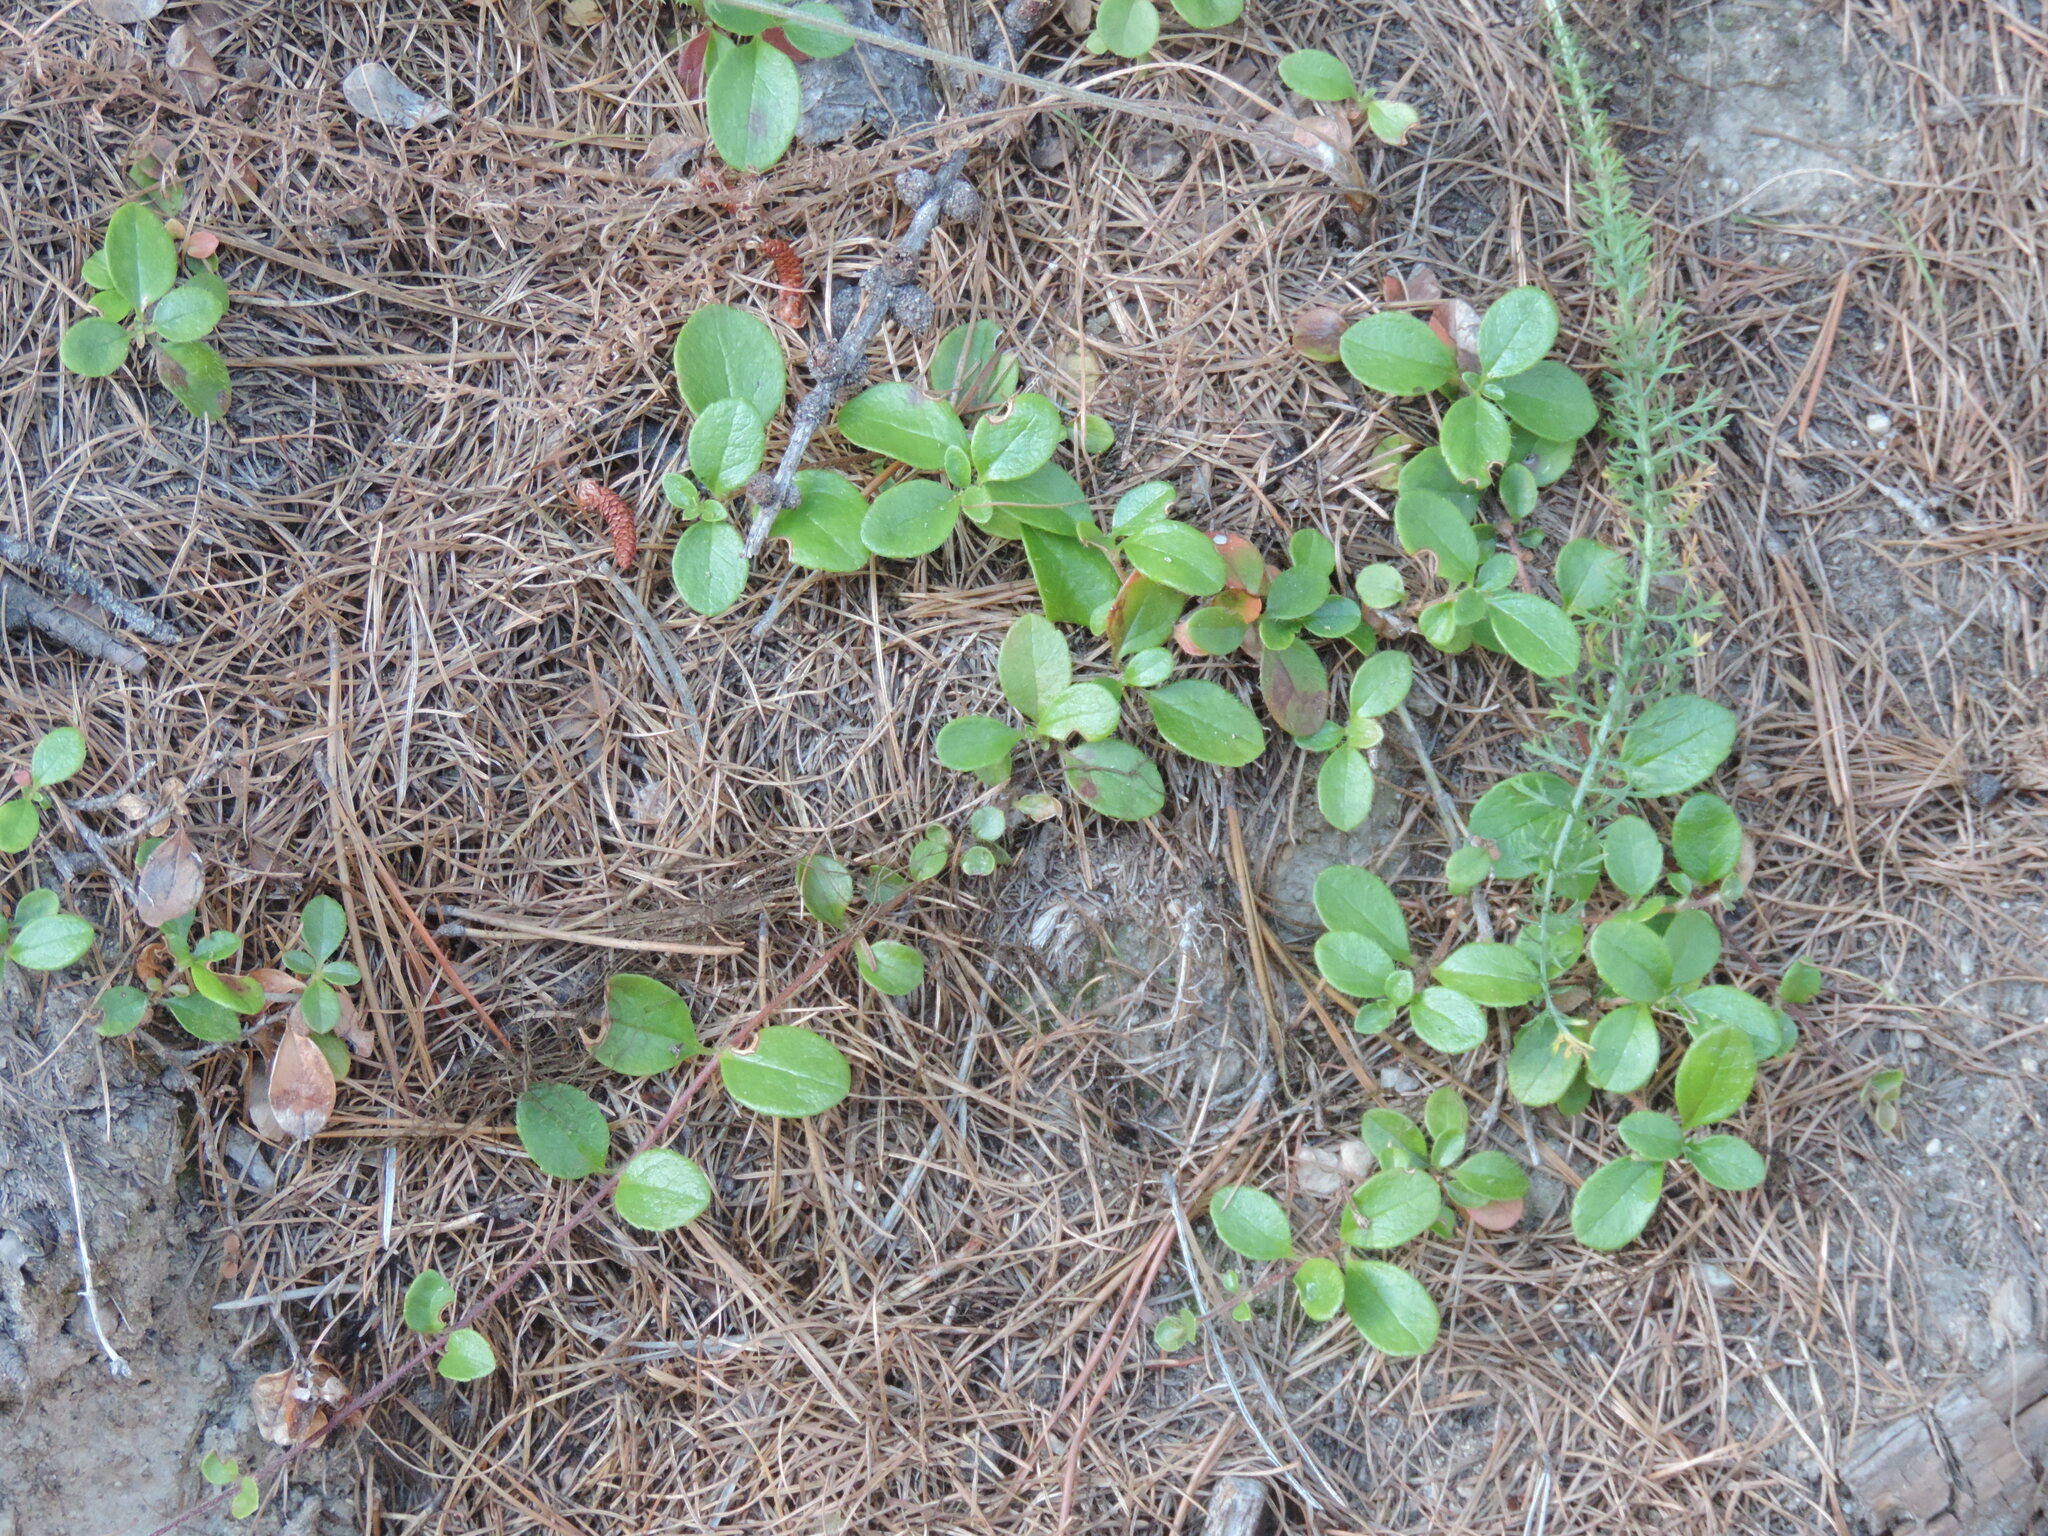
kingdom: Plantae
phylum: Tracheophyta
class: Magnoliopsida
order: Dipsacales
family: Caprifoliaceae
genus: Linnaea
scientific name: Linnaea borealis
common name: Twinflower
